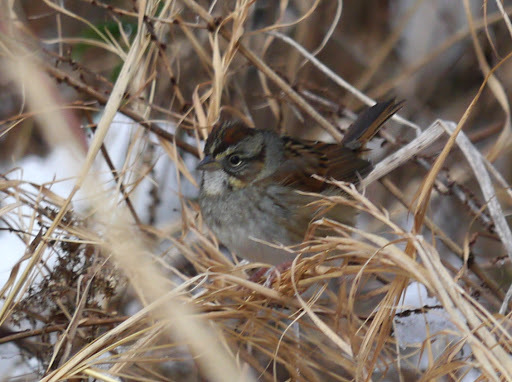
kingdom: Animalia
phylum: Chordata
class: Aves
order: Passeriformes
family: Passerellidae
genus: Melospiza
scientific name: Melospiza georgiana
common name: Swamp sparrow
